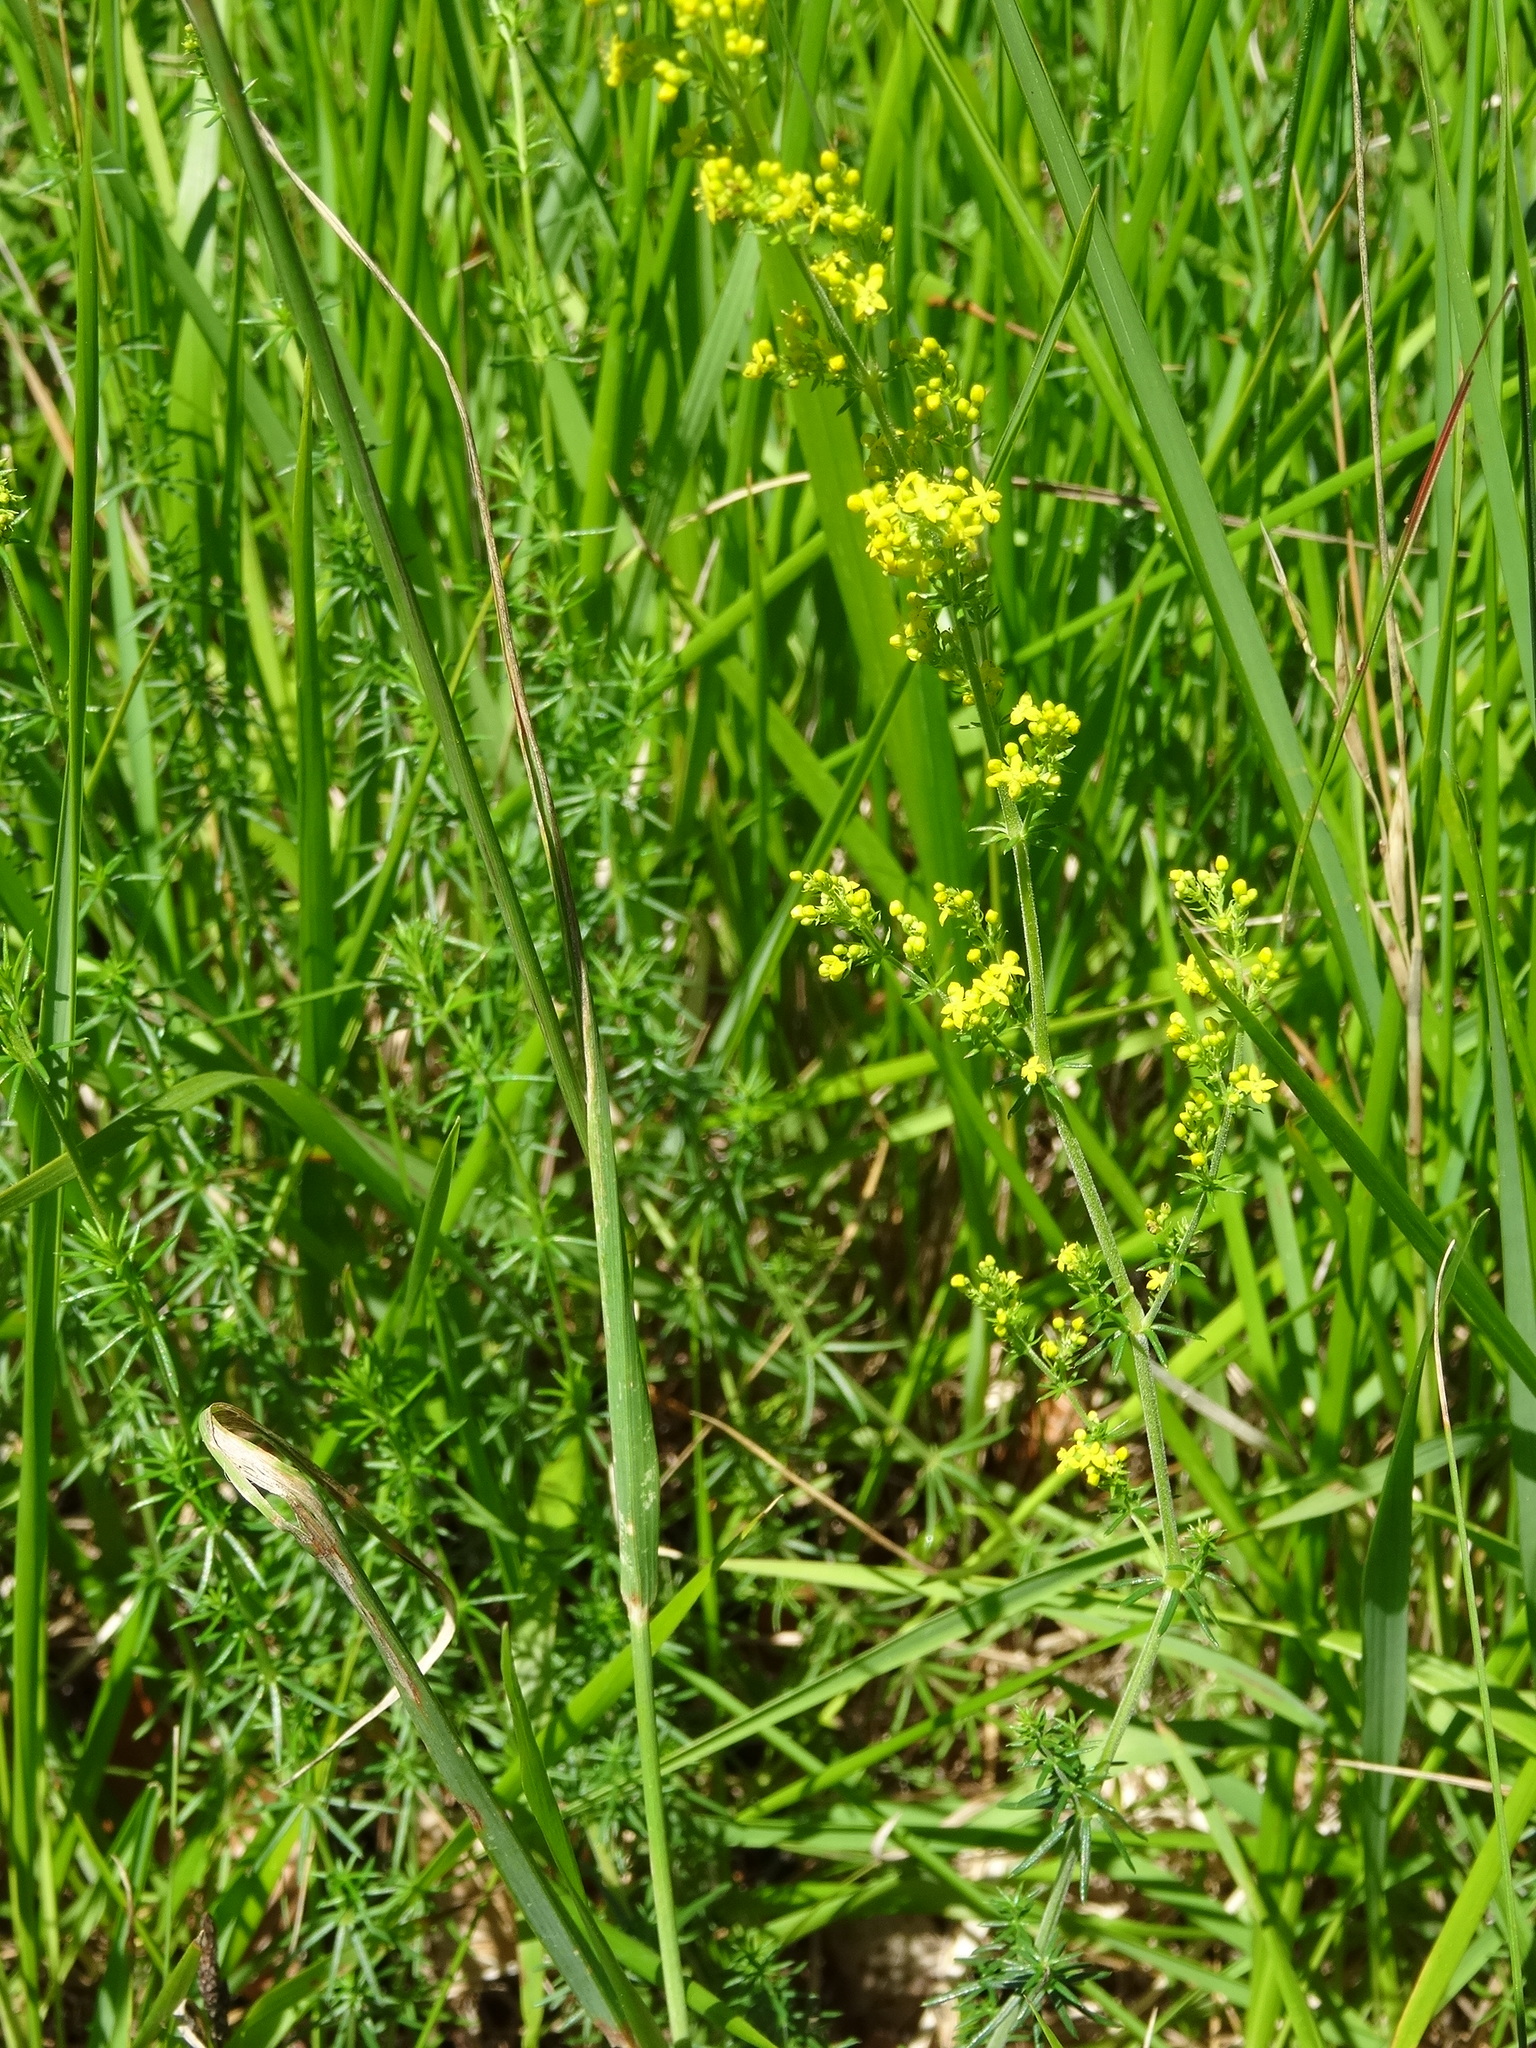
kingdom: Plantae
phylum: Tracheophyta
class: Magnoliopsida
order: Gentianales
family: Rubiaceae
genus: Galium
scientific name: Galium verum
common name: Lady's bedstraw
